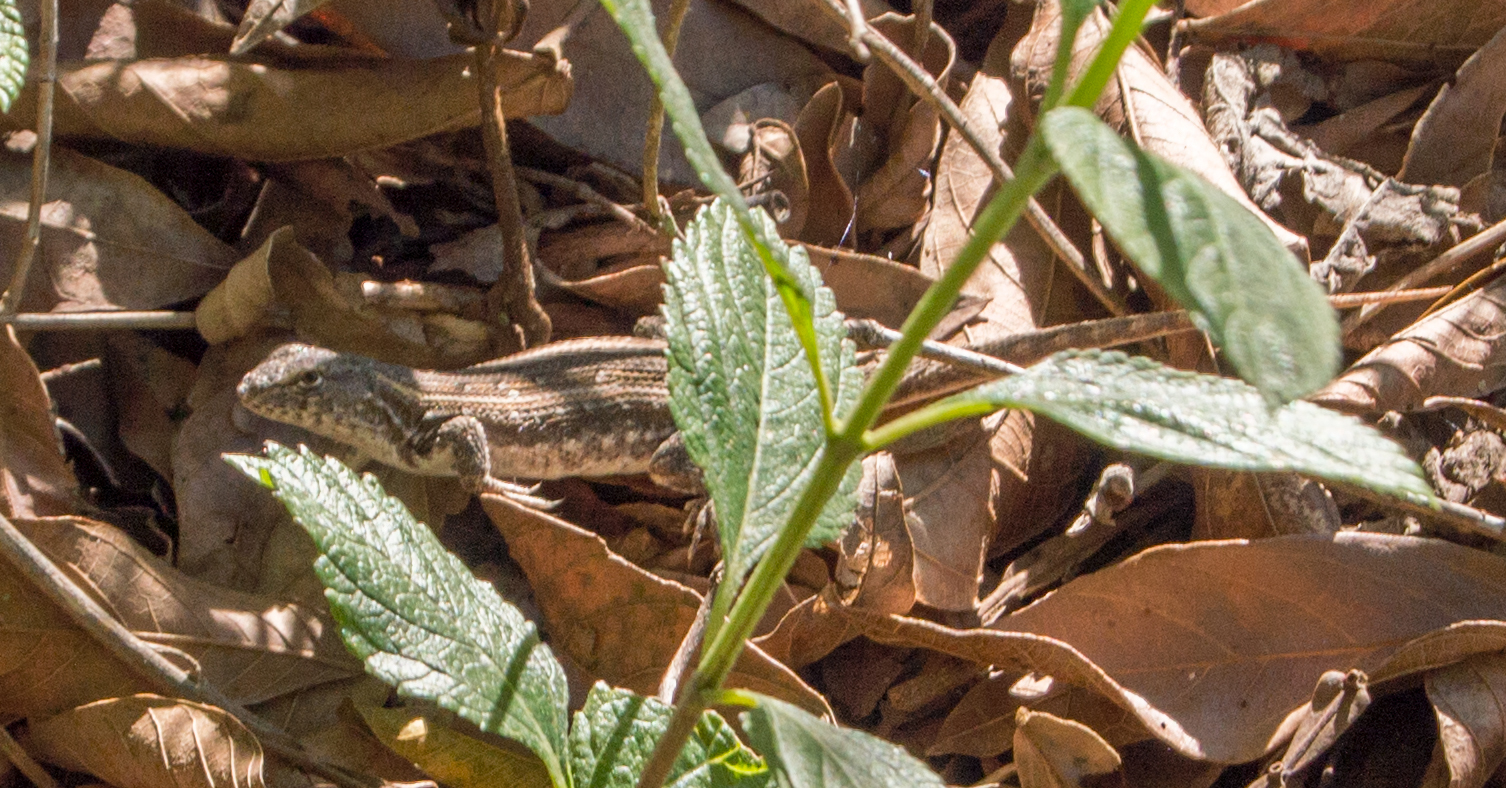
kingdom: Animalia
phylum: Chordata
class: Squamata
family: Liolaemidae
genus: Liolaemus
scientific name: Liolaemus wiegmannii
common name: Wiegmann's tree iguana
